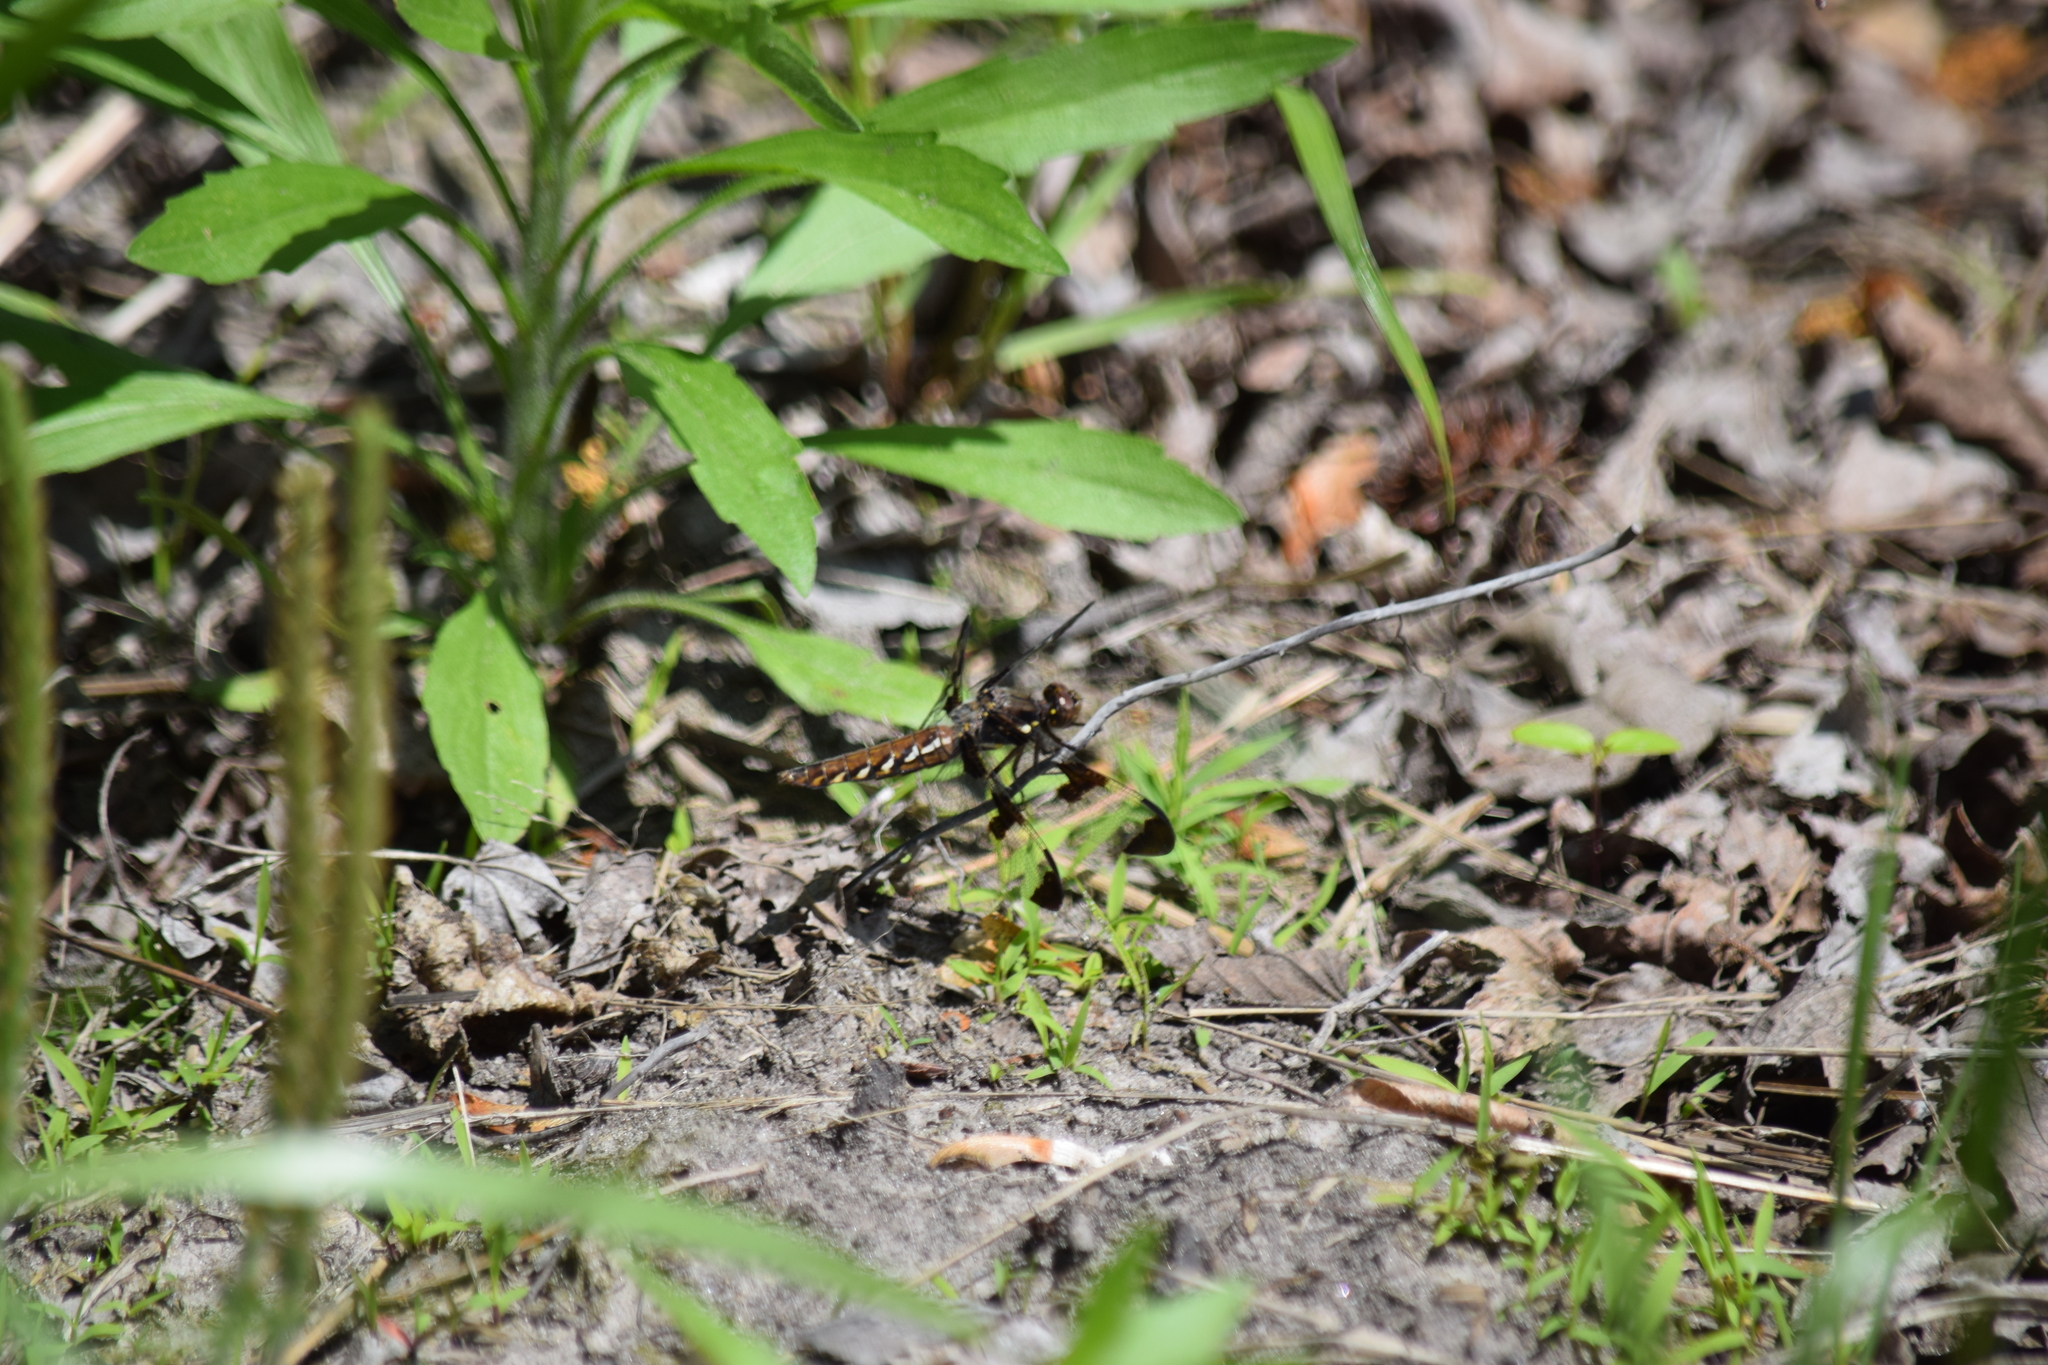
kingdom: Animalia
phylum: Arthropoda
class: Insecta
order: Odonata
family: Libellulidae
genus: Plathemis
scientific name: Plathemis lydia
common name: Common whitetail
